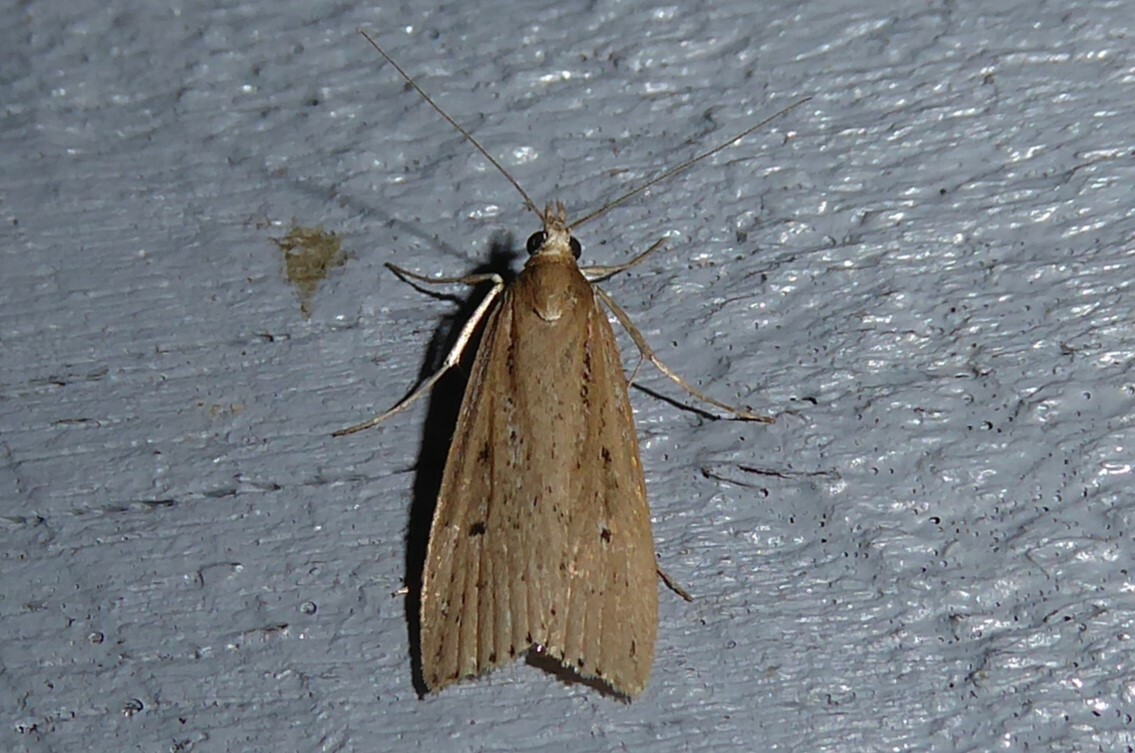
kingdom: Animalia
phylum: Arthropoda
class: Insecta
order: Lepidoptera
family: Crambidae
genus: Eudonia
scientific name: Eudonia sabulosella
